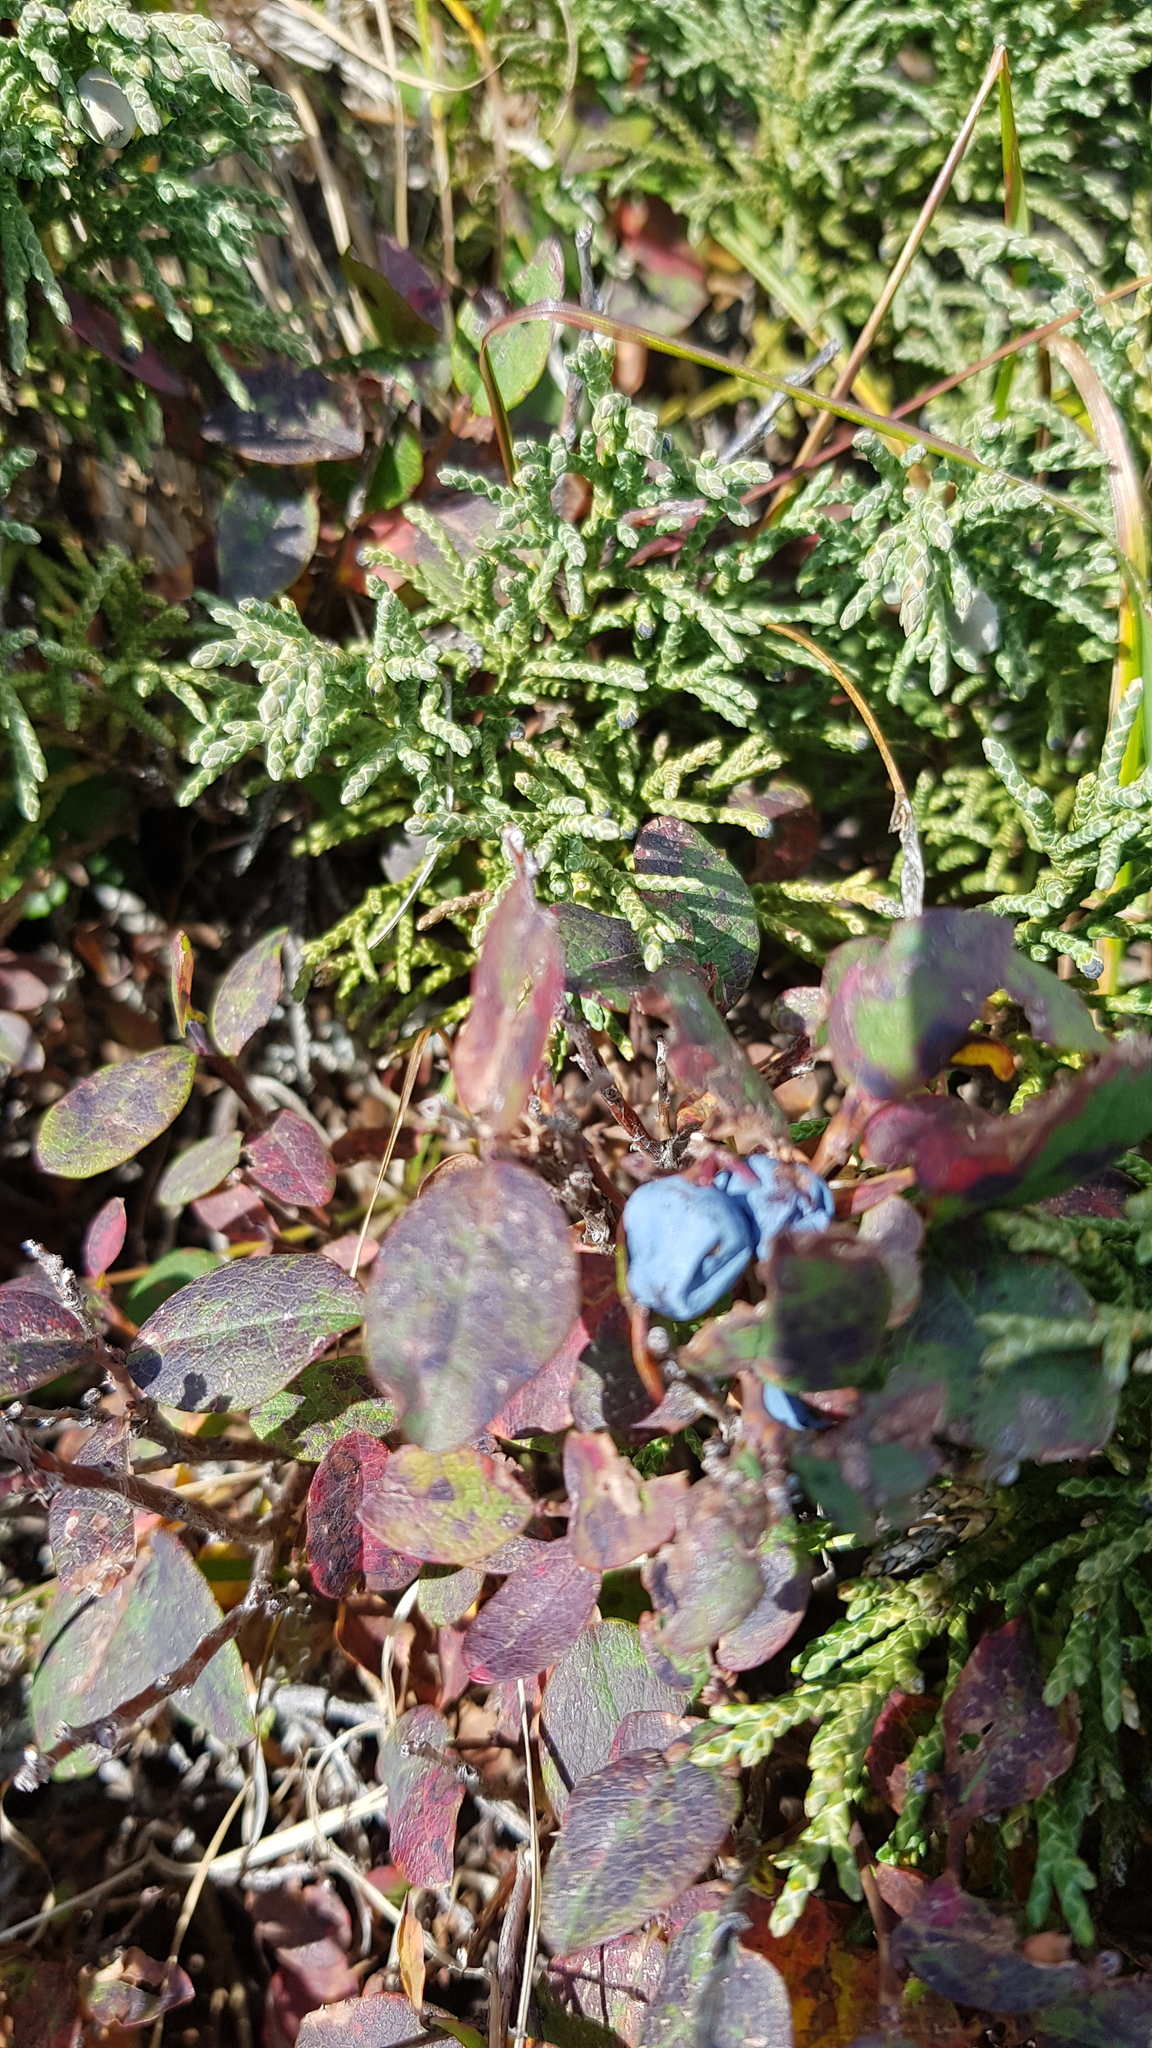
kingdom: Plantae
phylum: Tracheophyta
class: Magnoliopsida
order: Ericales
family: Ericaceae
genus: Vaccinium
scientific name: Vaccinium uliginosum
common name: Bog bilberry
